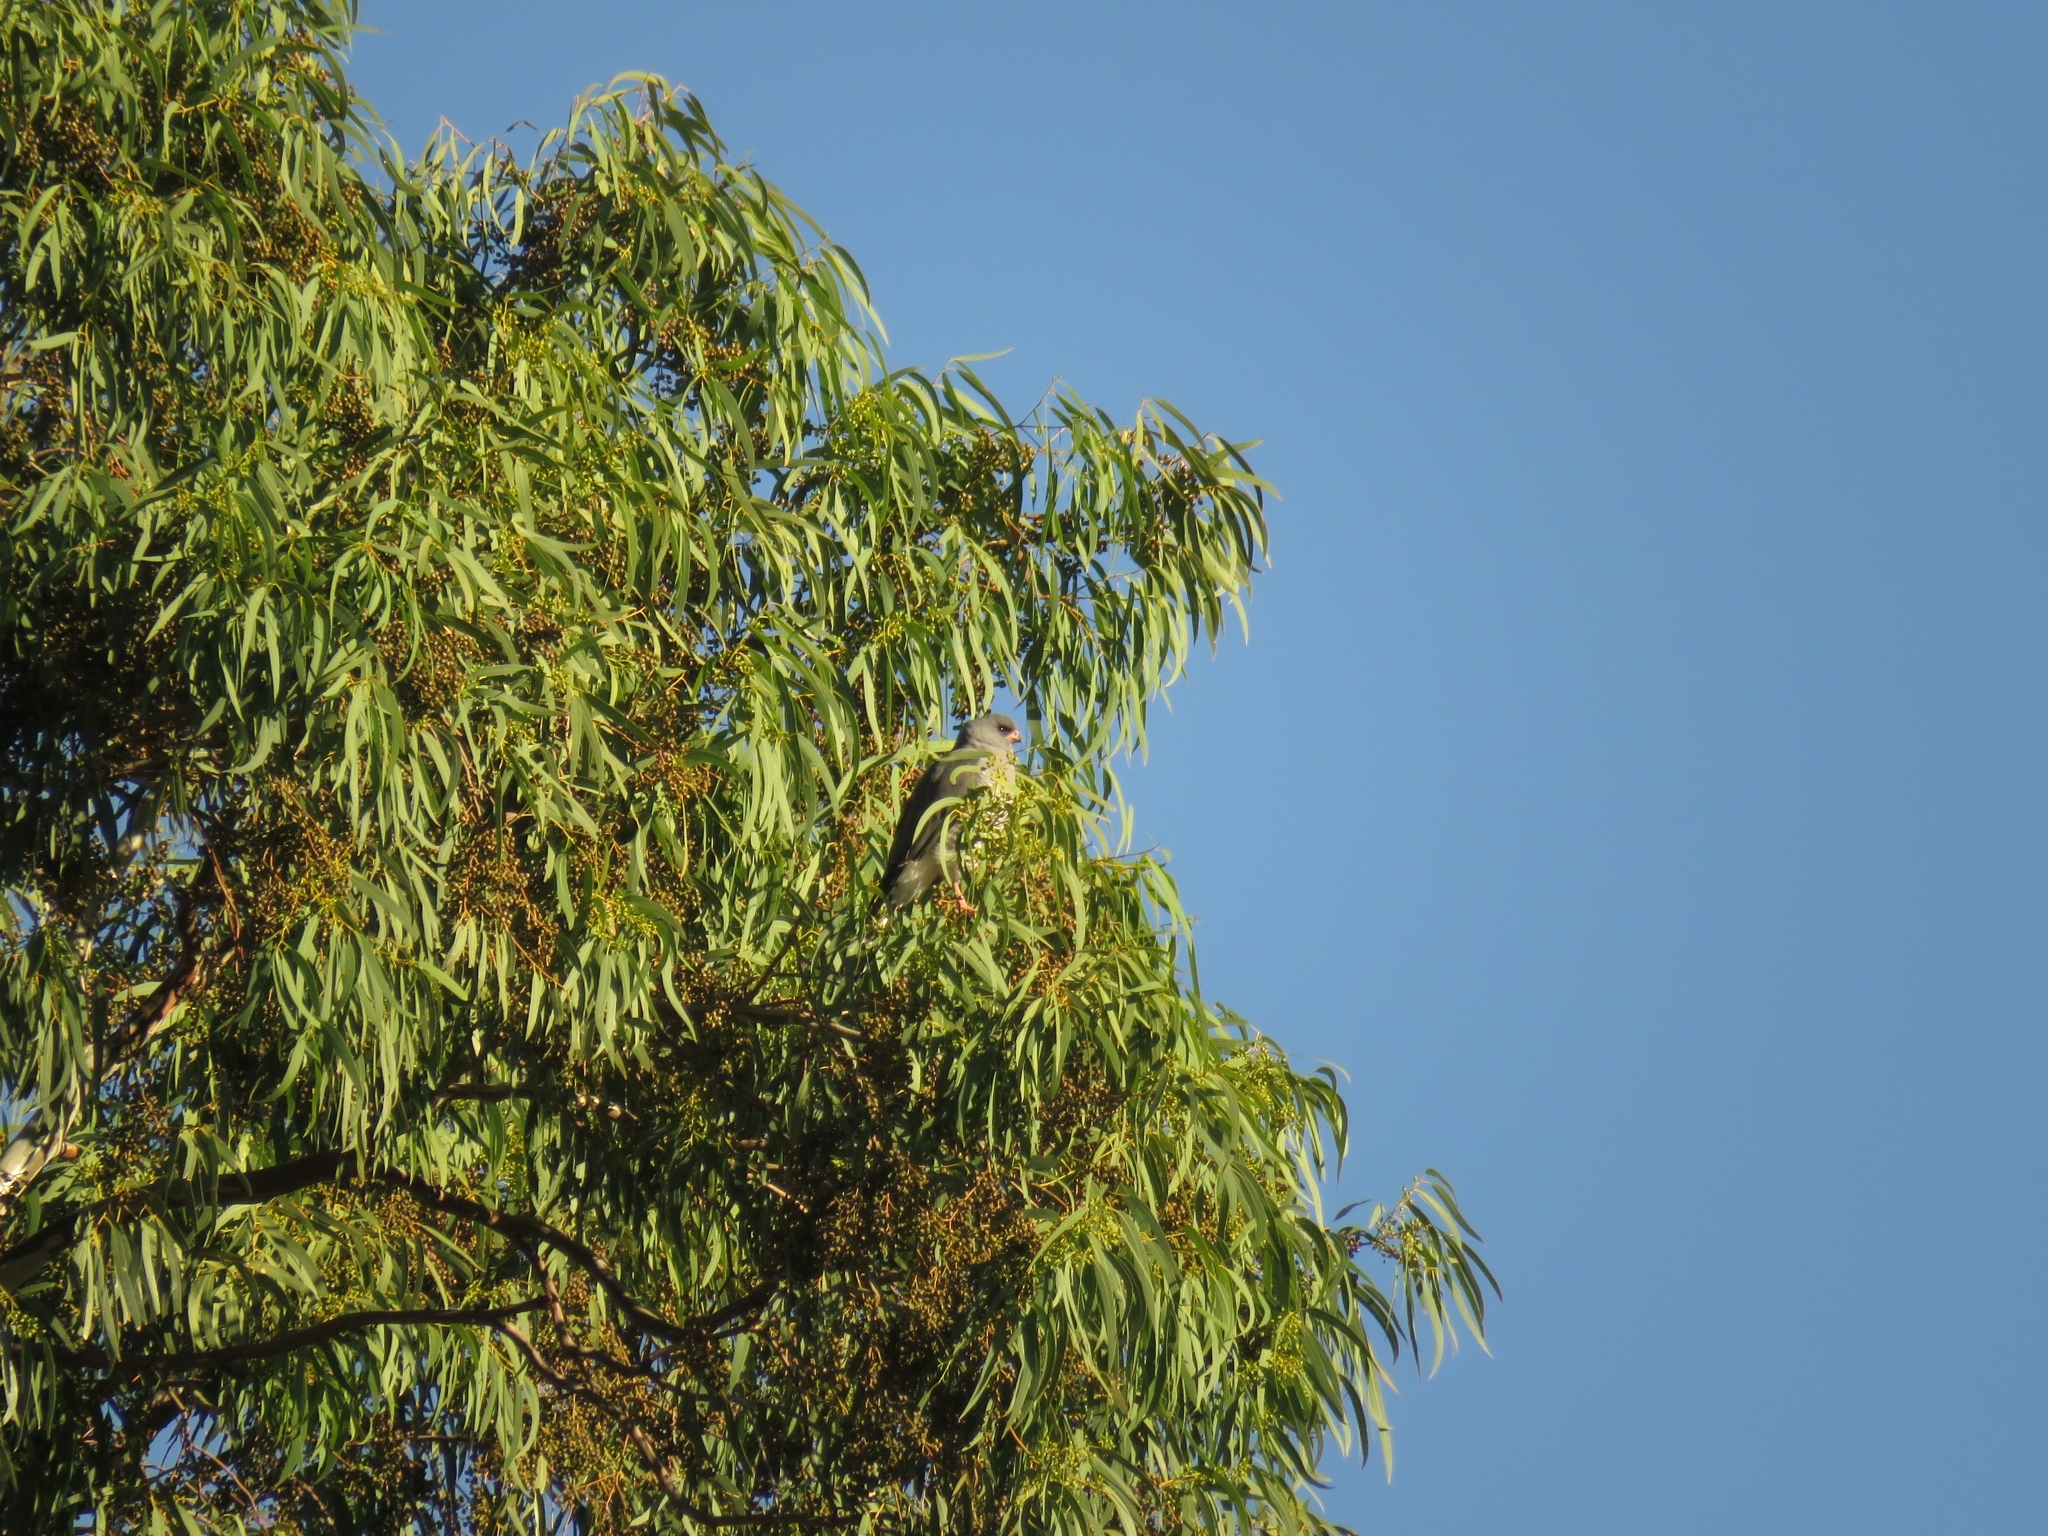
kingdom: Animalia
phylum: Chordata
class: Aves
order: Accipitriformes
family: Accipitridae
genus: Micronisus
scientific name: Micronisus gabar
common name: Gabar goshawk
